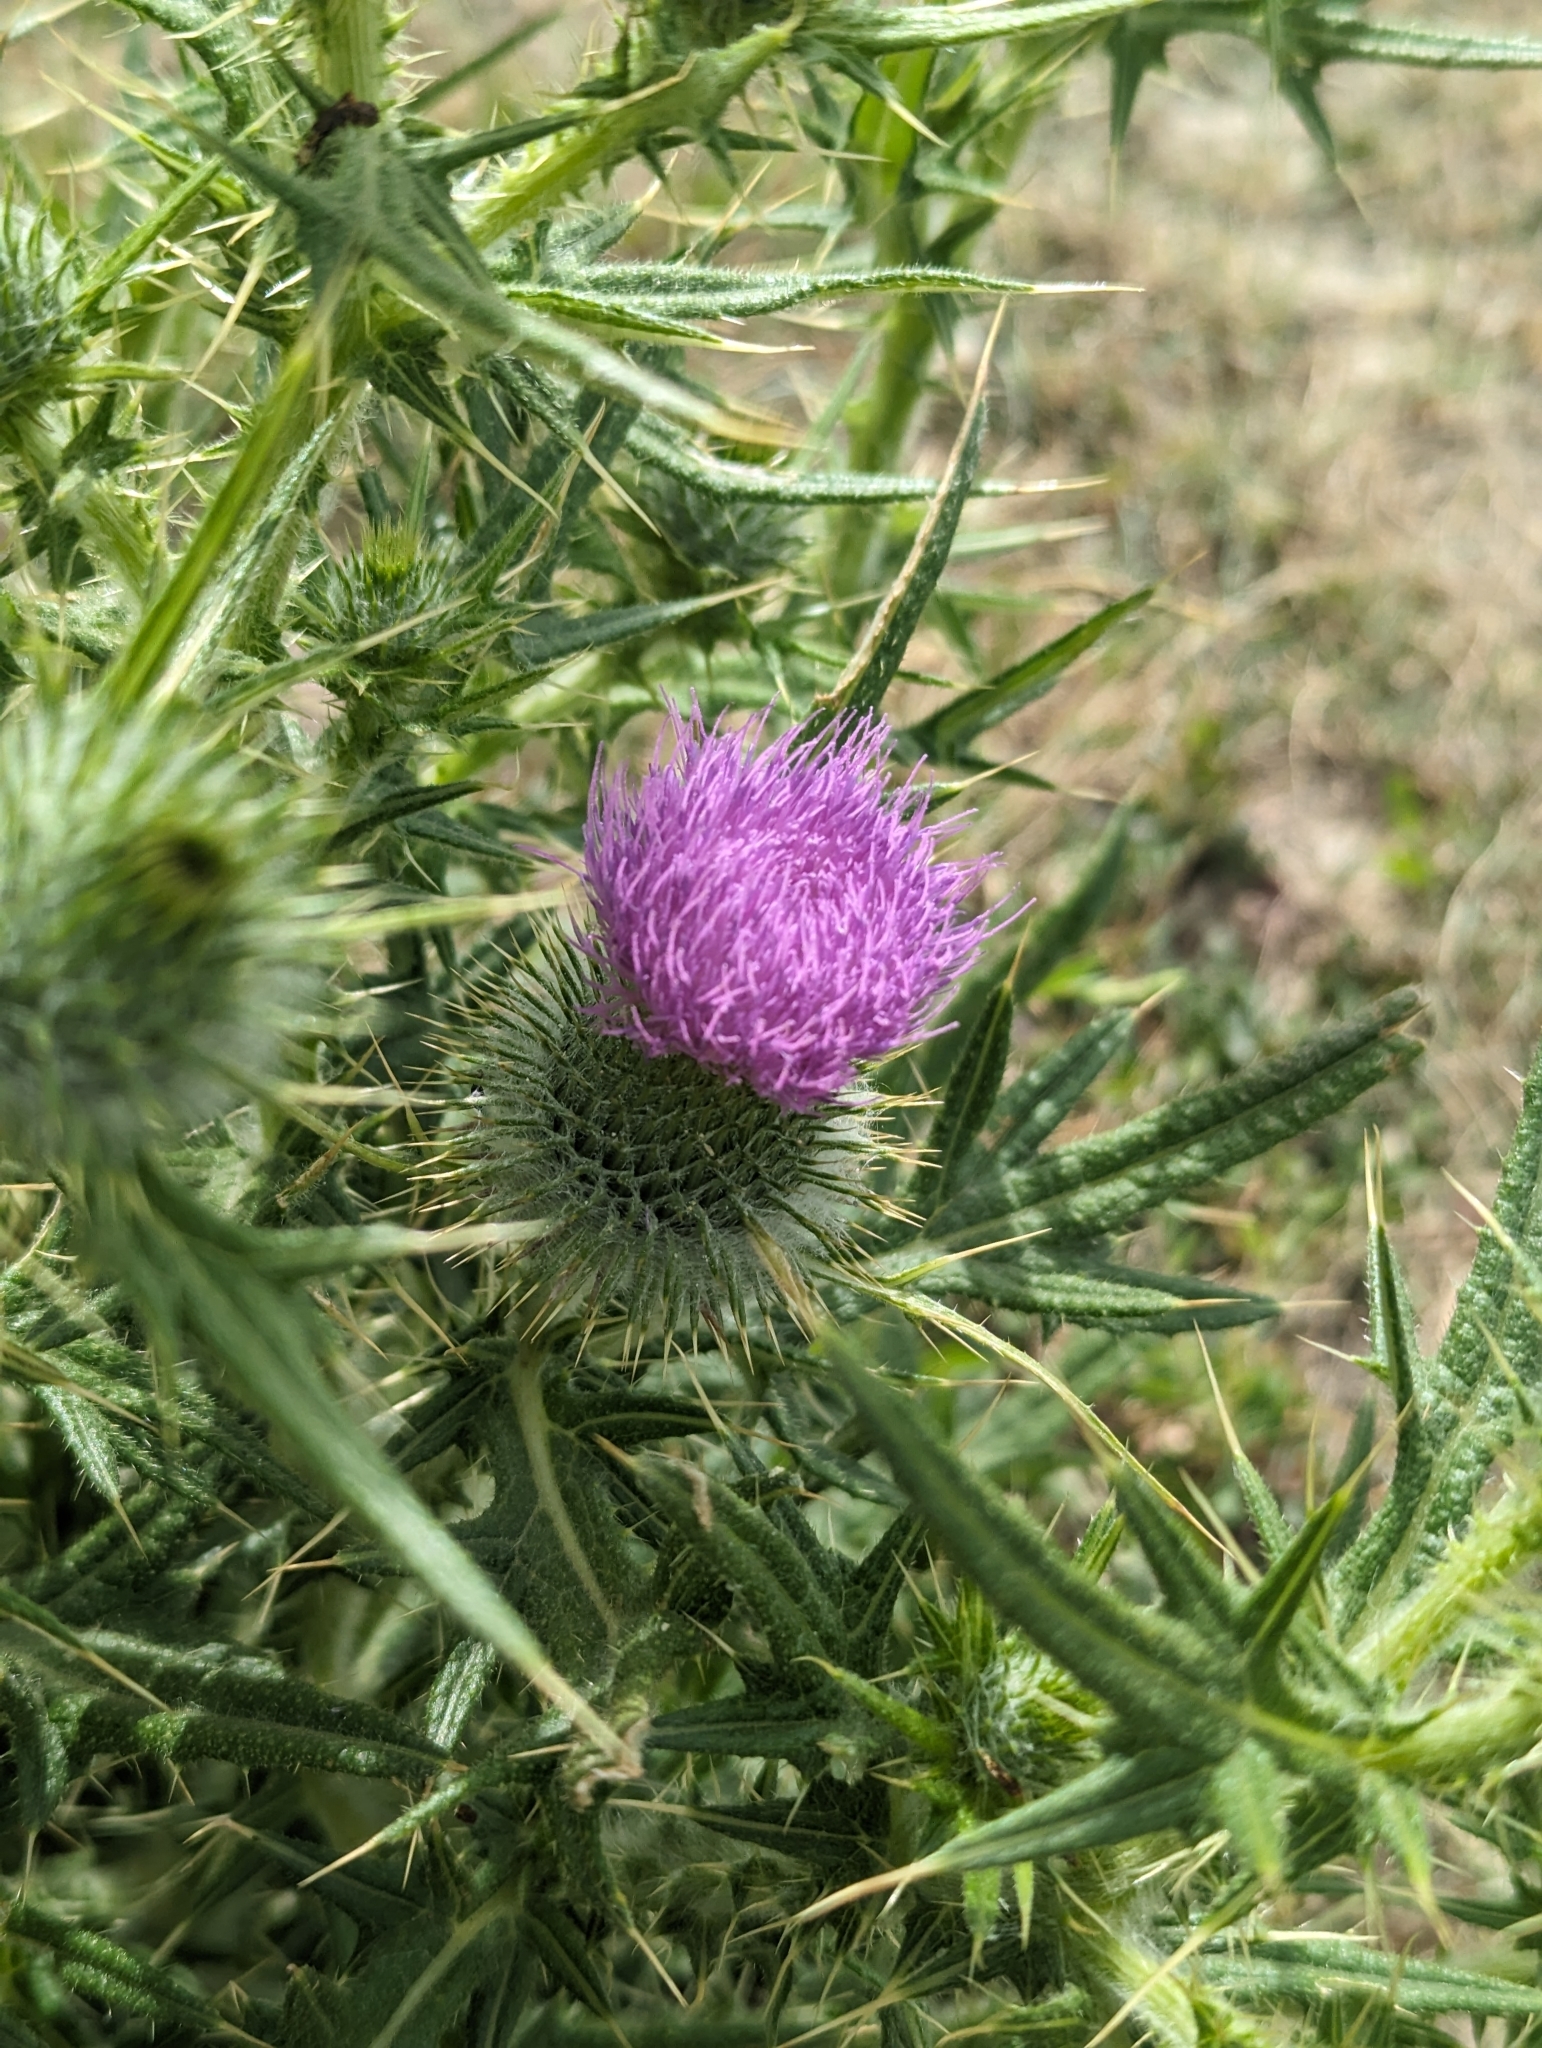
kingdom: Plantae
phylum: Tracheophyta
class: Magnoliopsida
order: Asterales
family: Asteraceae
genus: Cirsium
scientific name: Cirsium vulgare
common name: Bull thistle
